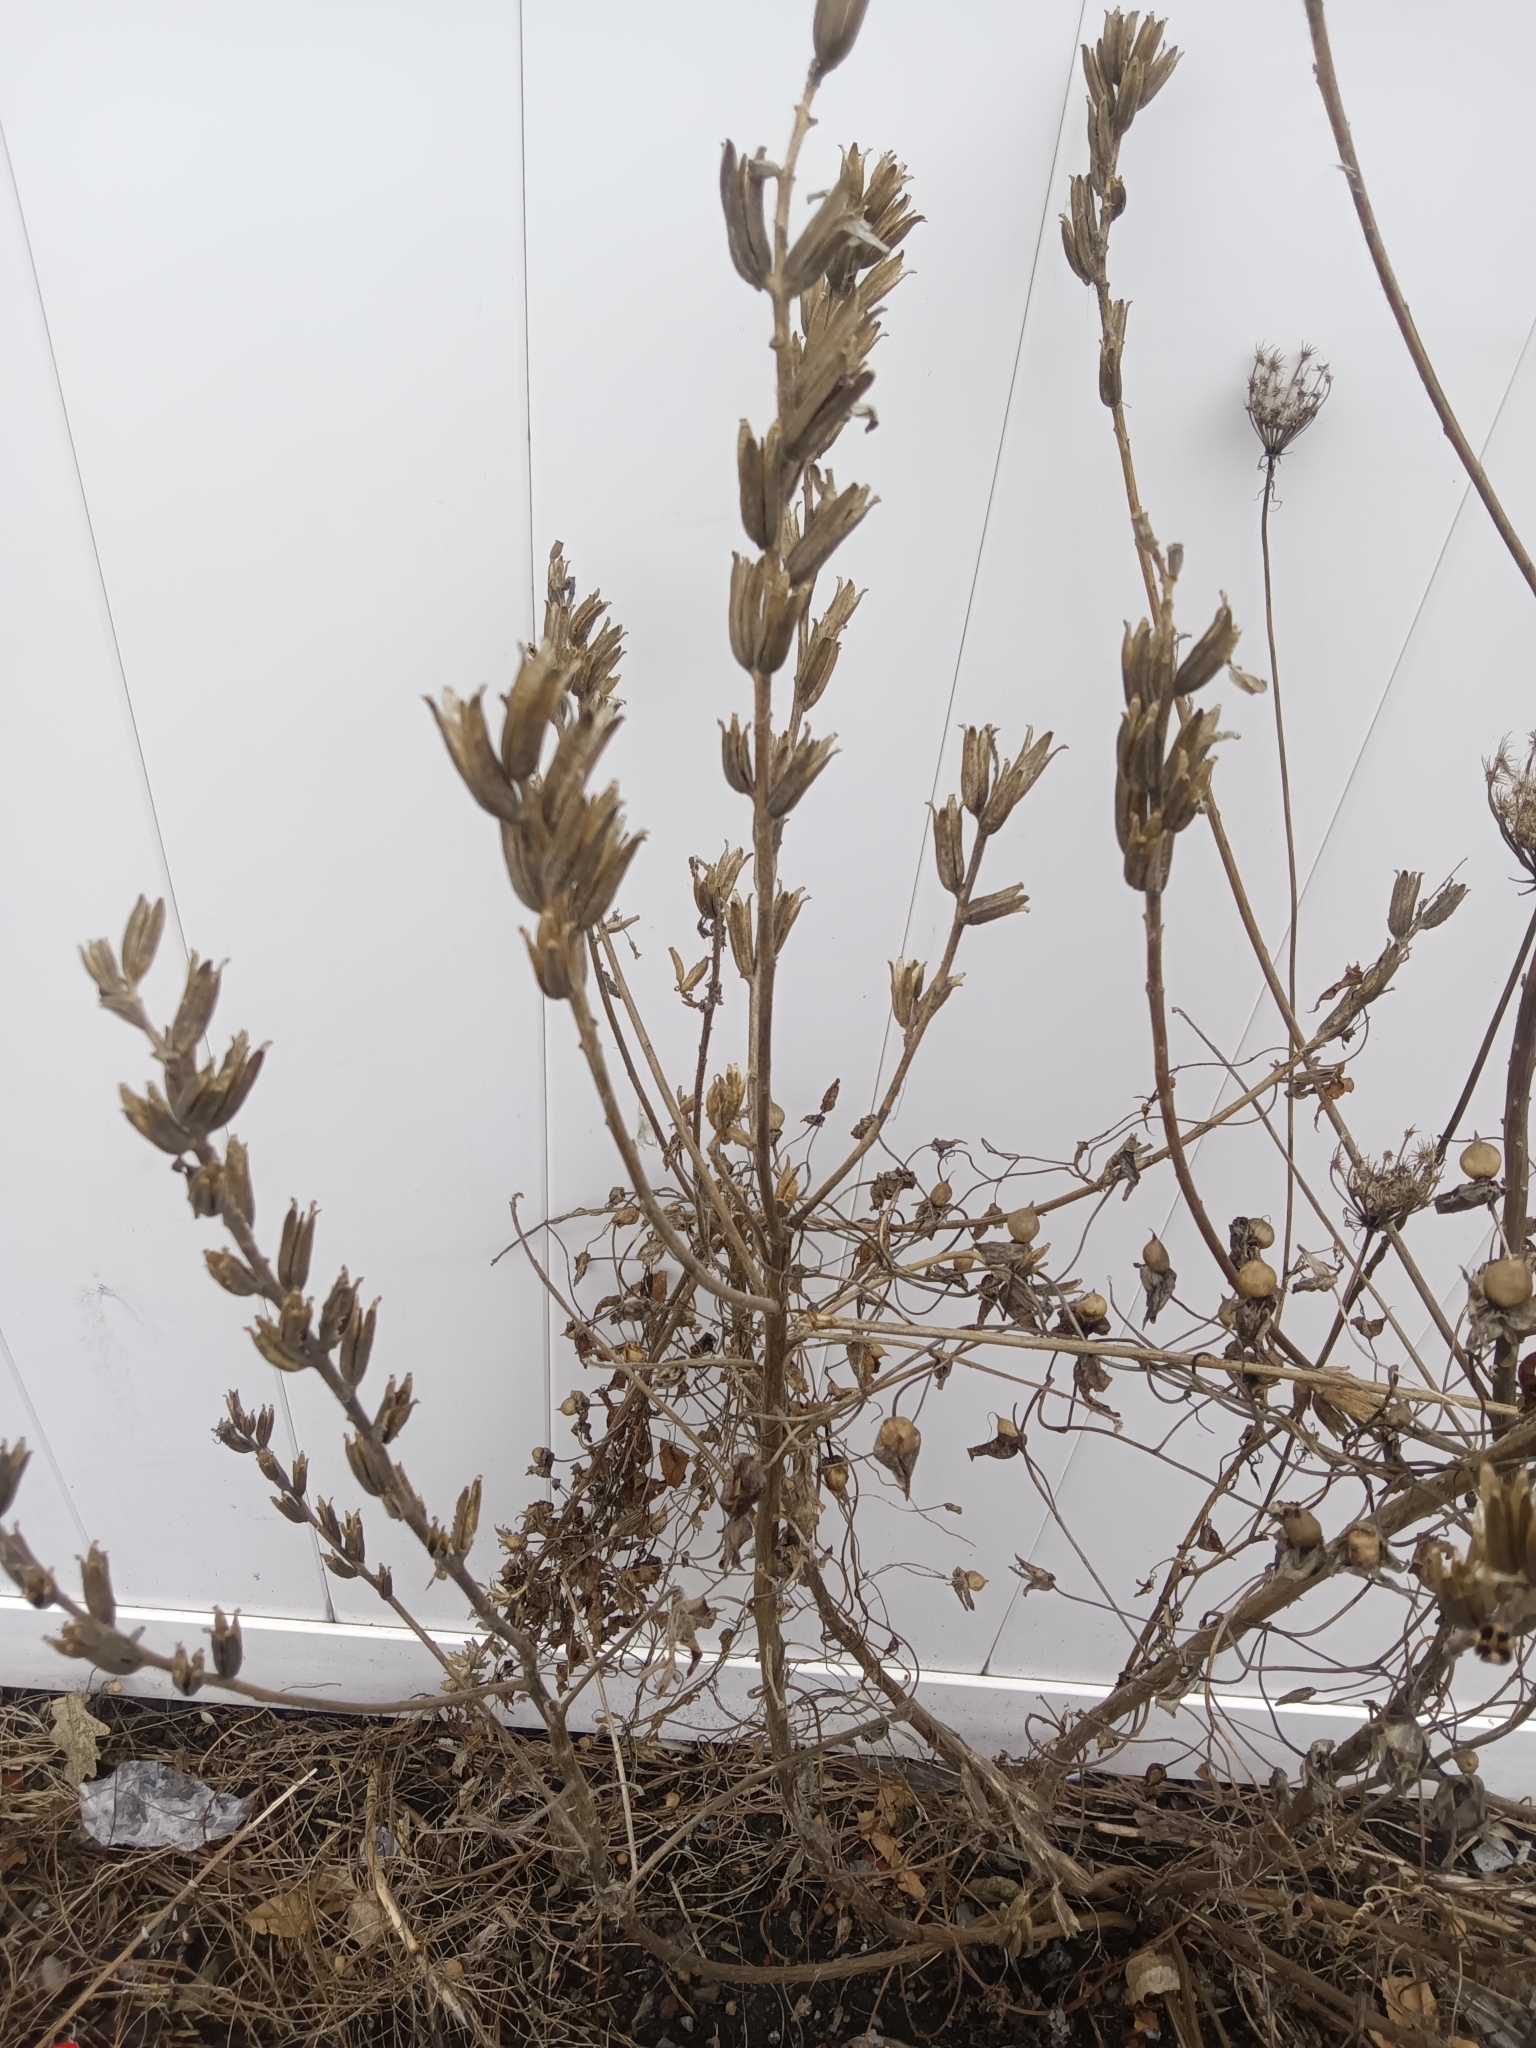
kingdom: Plantae
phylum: Tracheophyta
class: Magnoliopsida
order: Myrtales
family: Onagraceae
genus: Oenothera
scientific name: Oenothera biennis
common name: Common evening-primrose
